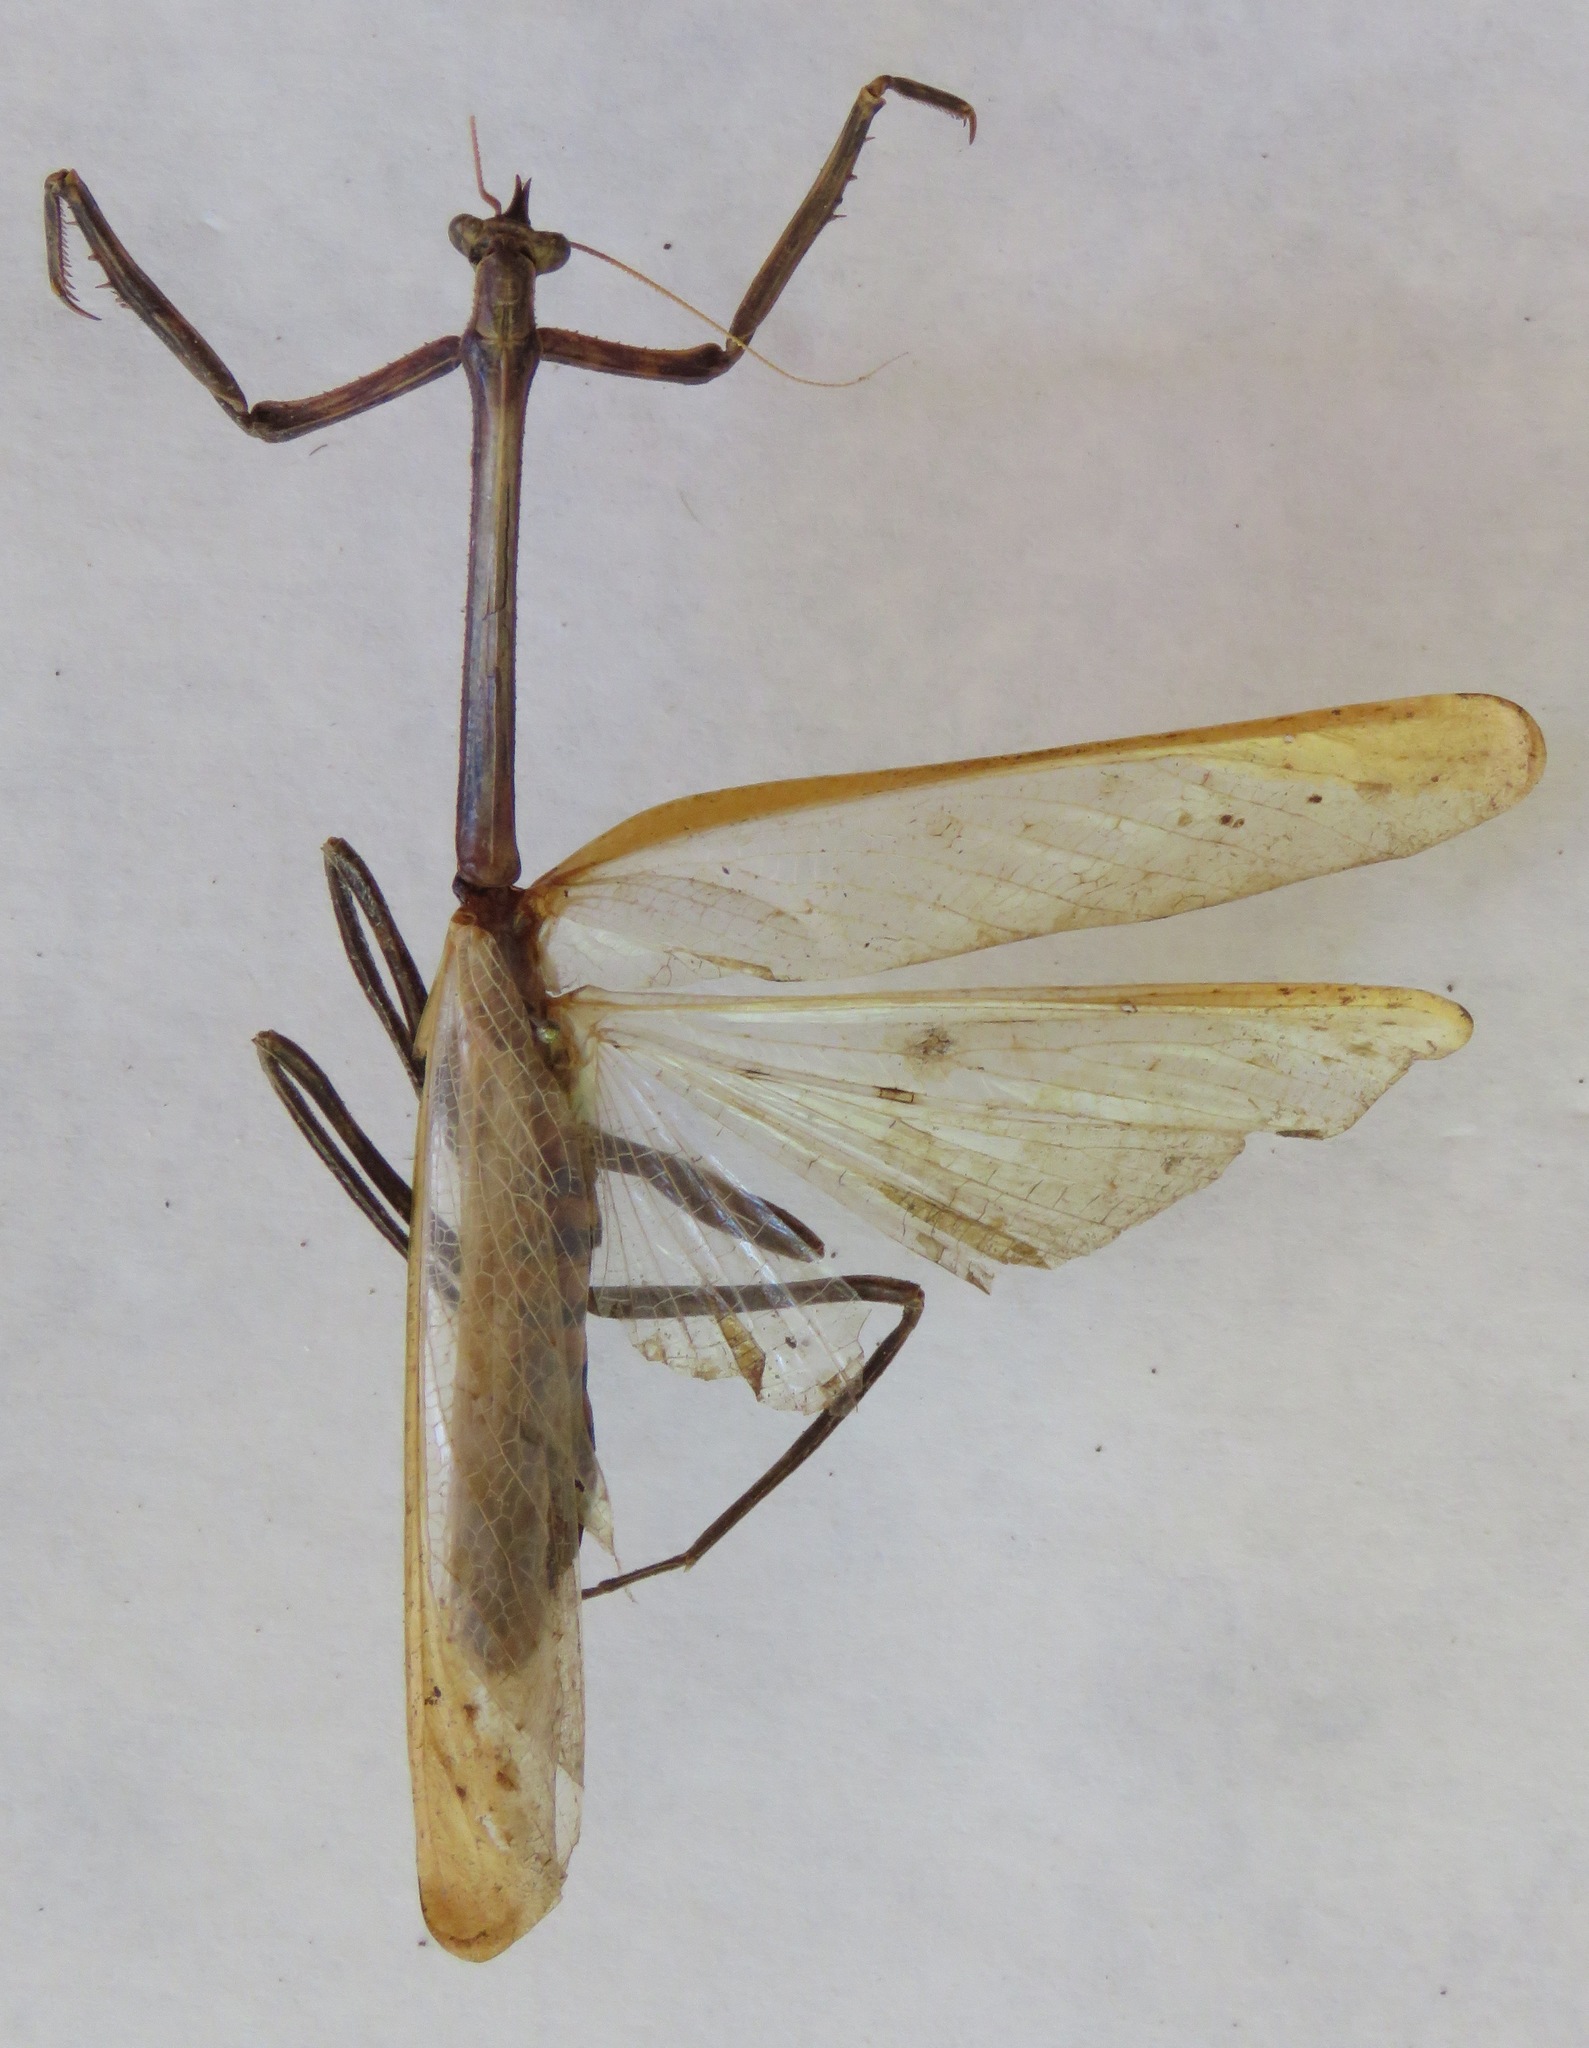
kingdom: Animalia
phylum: Arthropoda
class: Insecta
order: Mantodea
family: Mantidae
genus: Pseudovates
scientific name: Pseudovates chlorophaea
